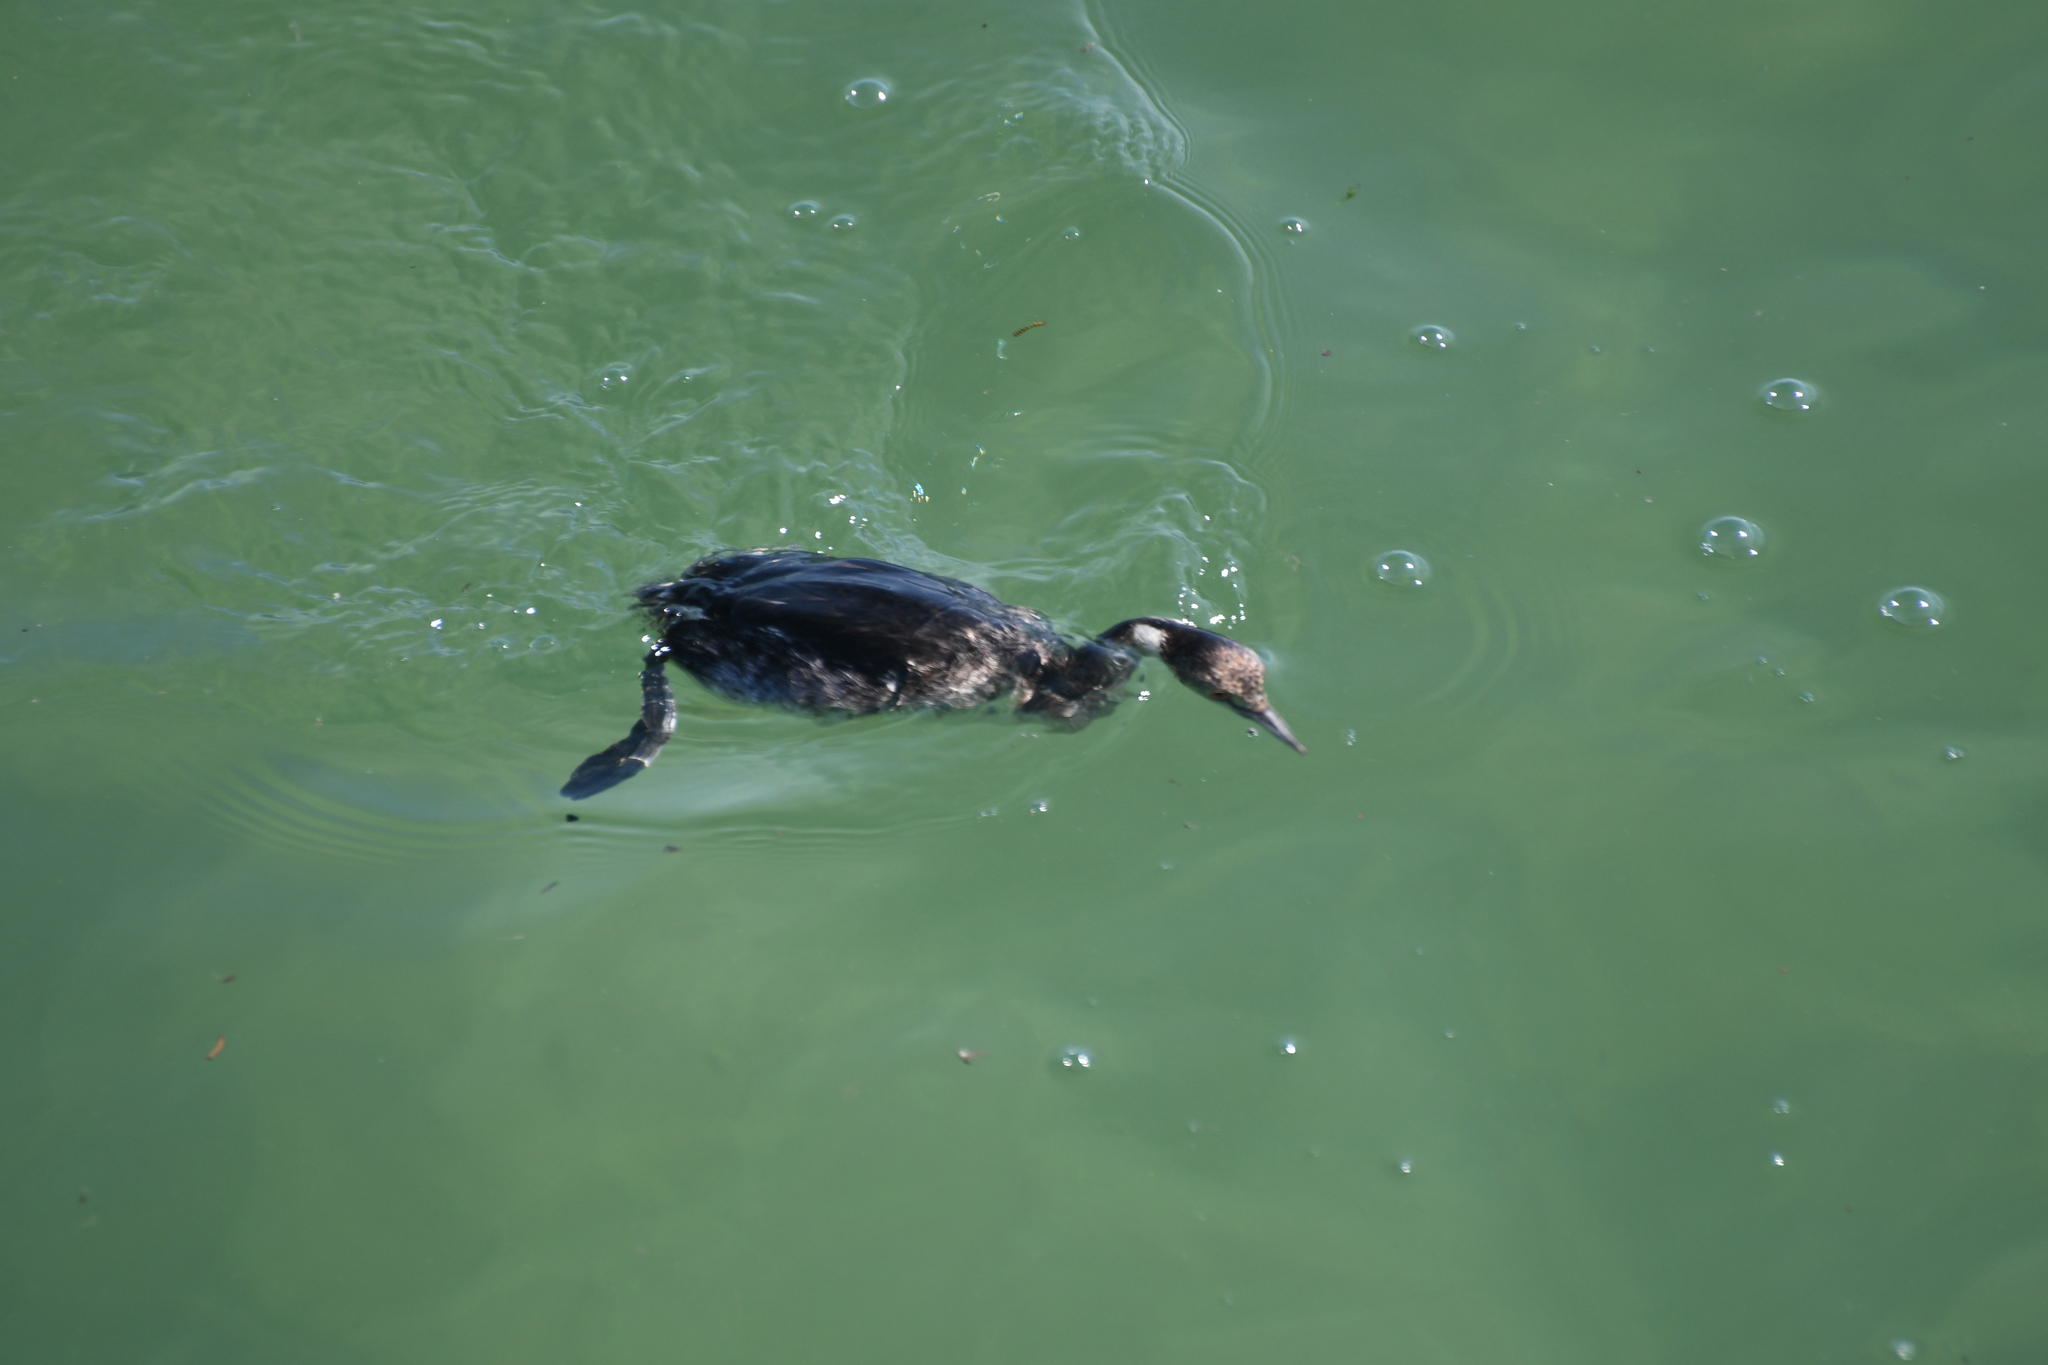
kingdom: Animalia
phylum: Chordata
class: Aves
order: Podicipediformes
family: Podicipedidae
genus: Podiceps
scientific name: Podiceps nigricollis
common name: Black-necked grebe
